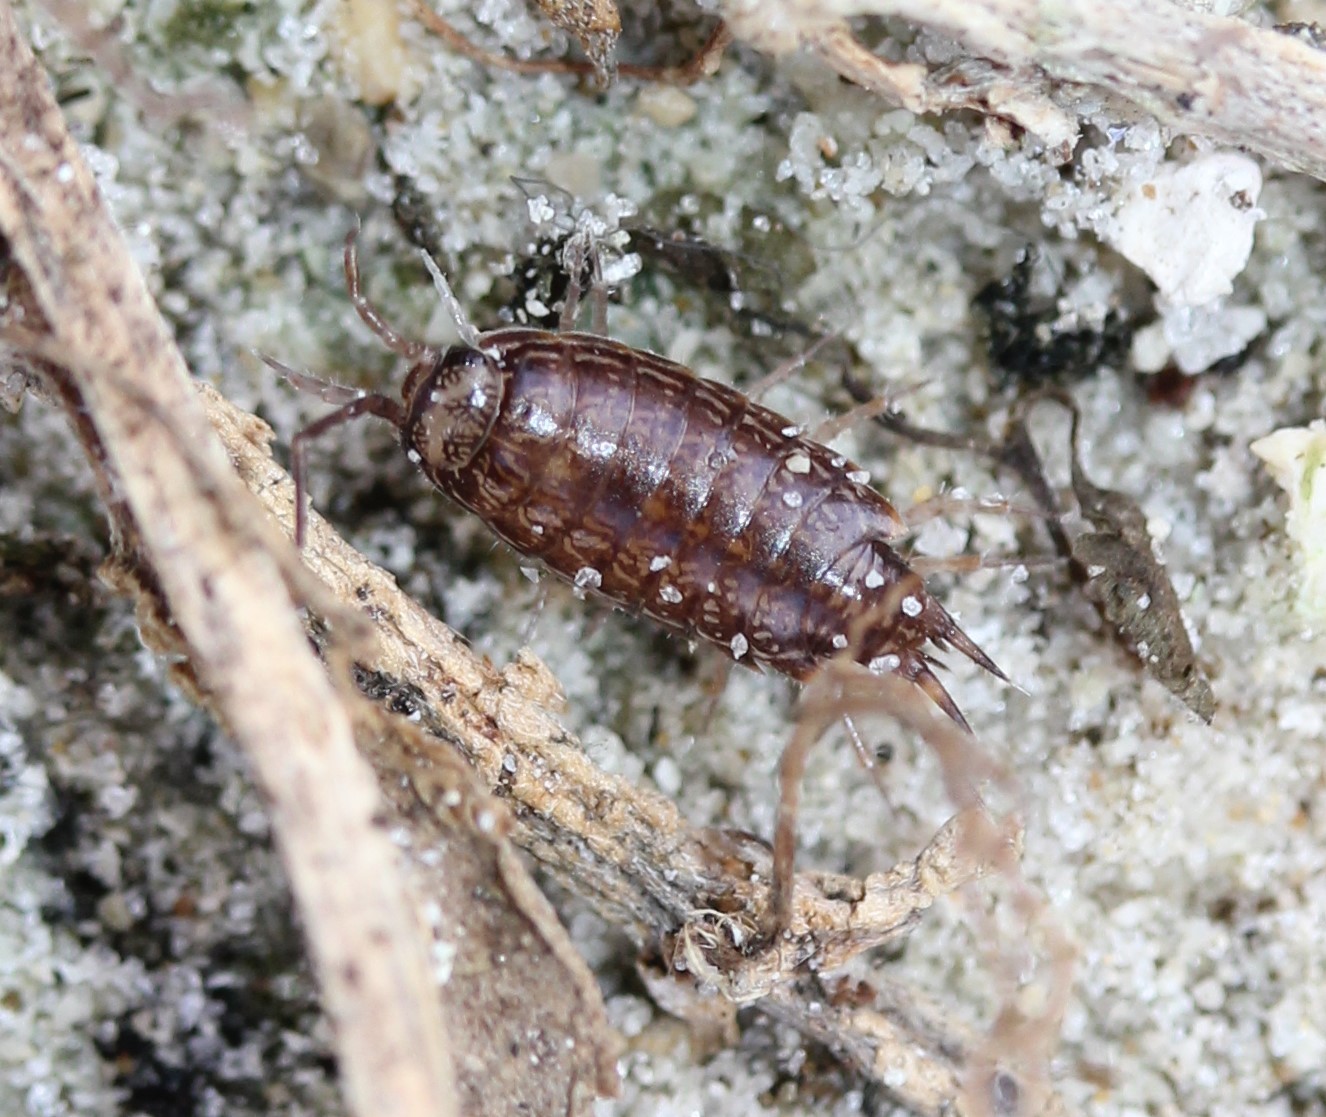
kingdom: Animalia
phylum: Arthropoda
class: Malacostraca
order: Isopoda
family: Philosciidae
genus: Atlantoscia
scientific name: Atlantoscia floridana
